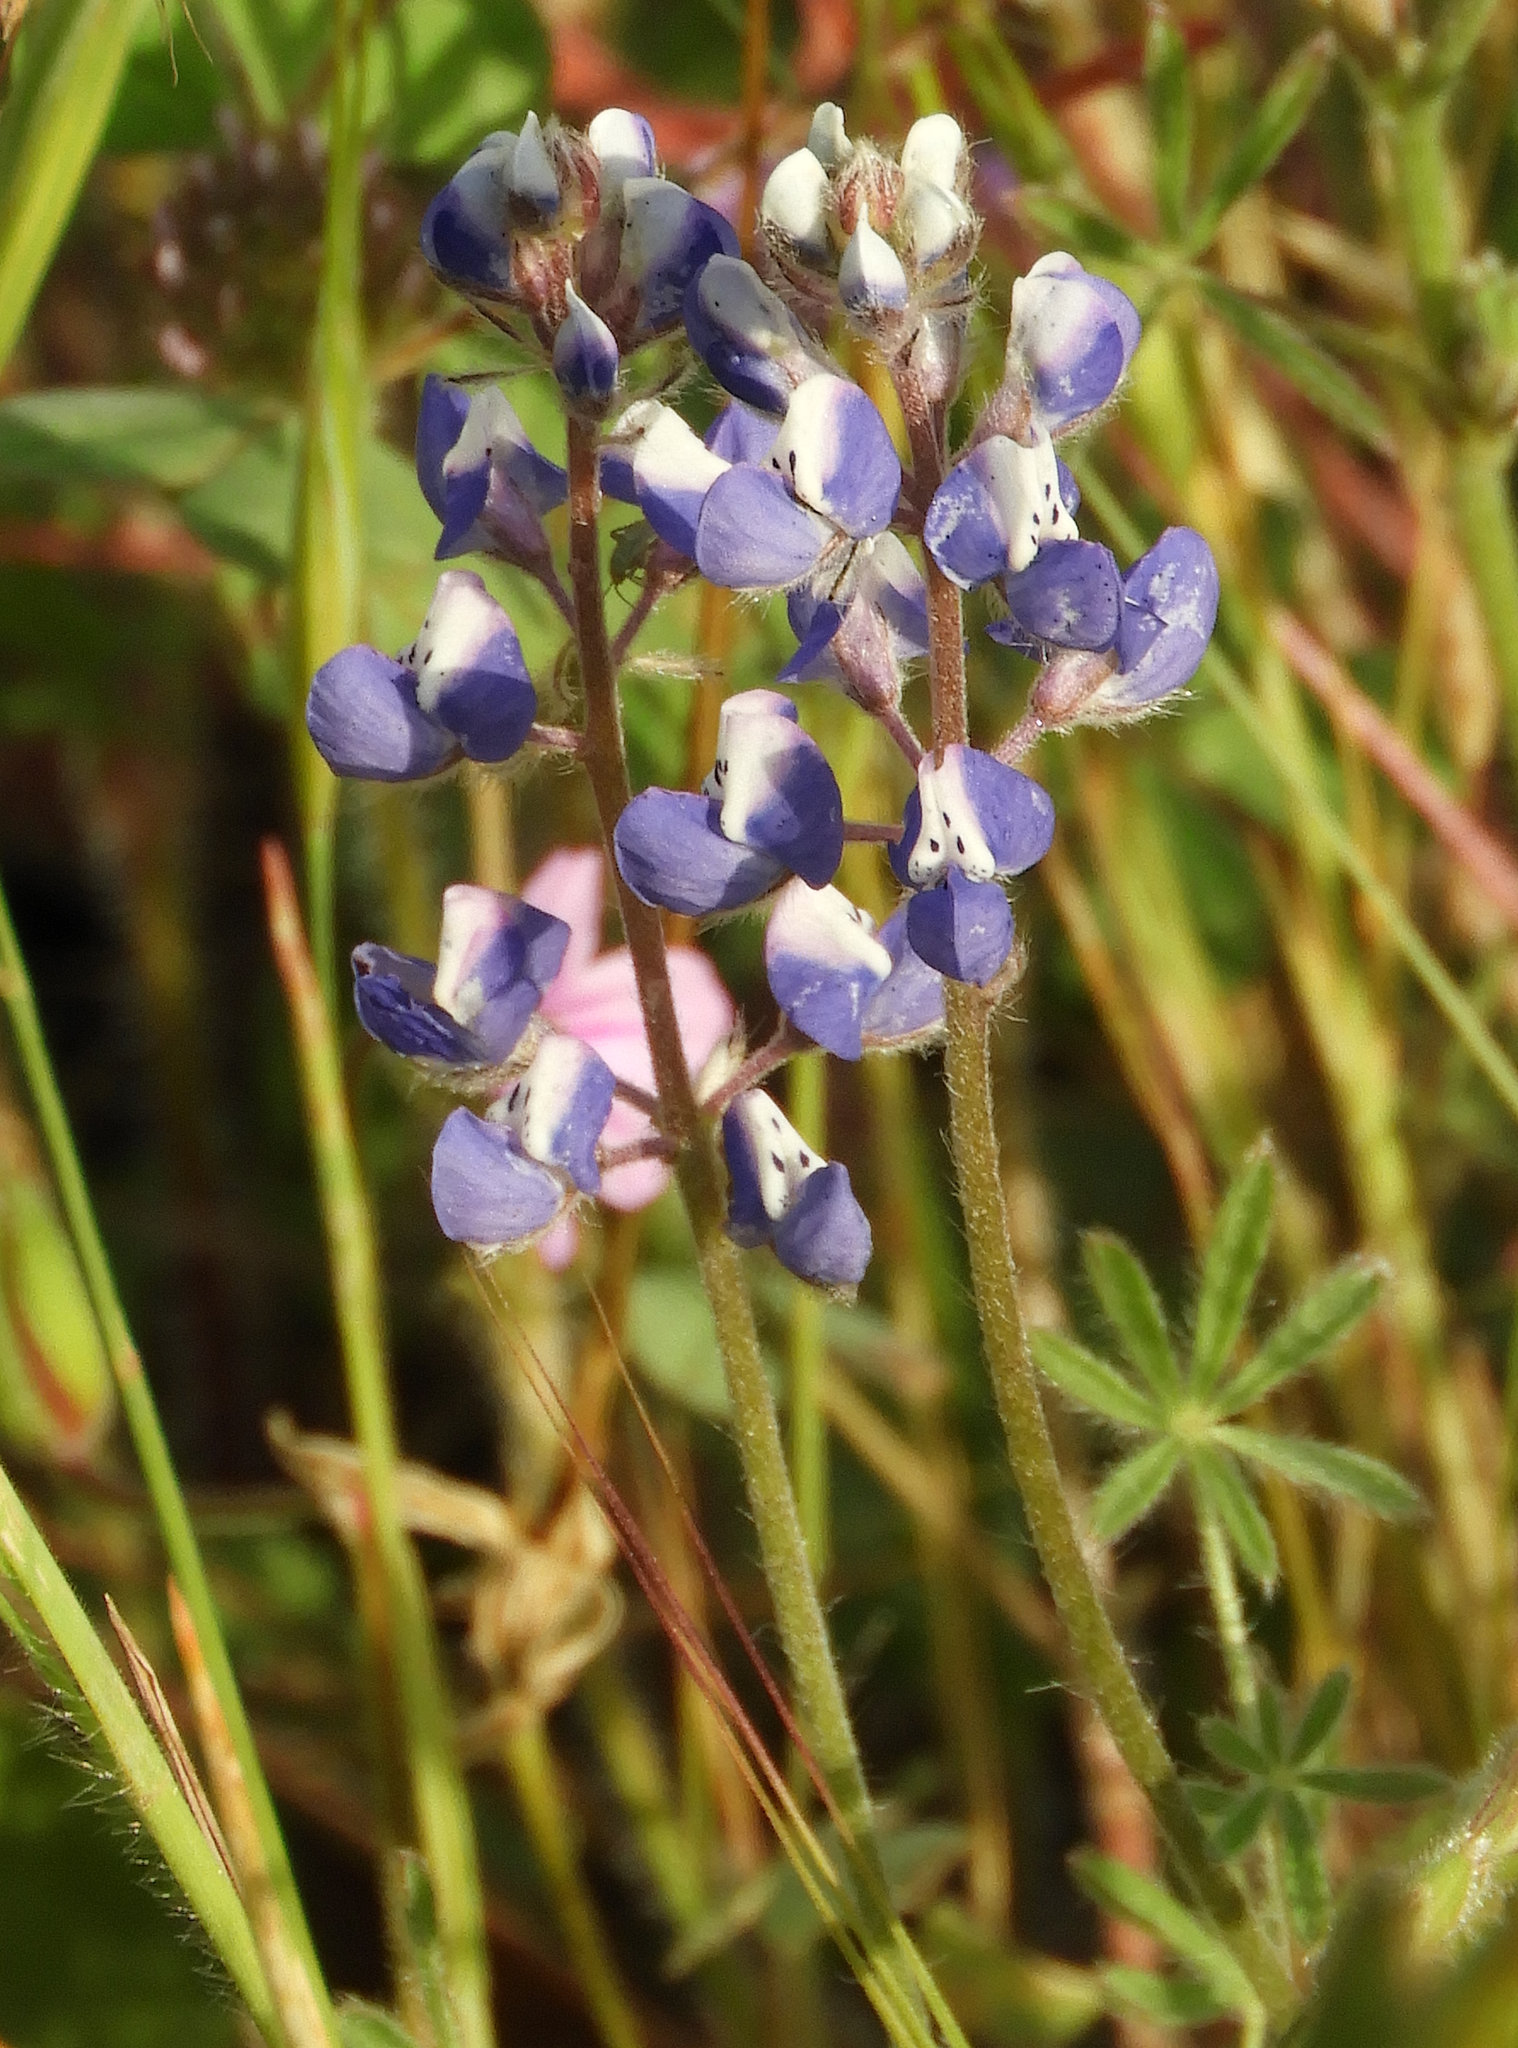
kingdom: Plantae
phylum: Tracheophyta
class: Magnoliopsida
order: Fabales
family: Fabaceae
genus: Lupinus
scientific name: Lupinus bicolor
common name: Miniature lupine
